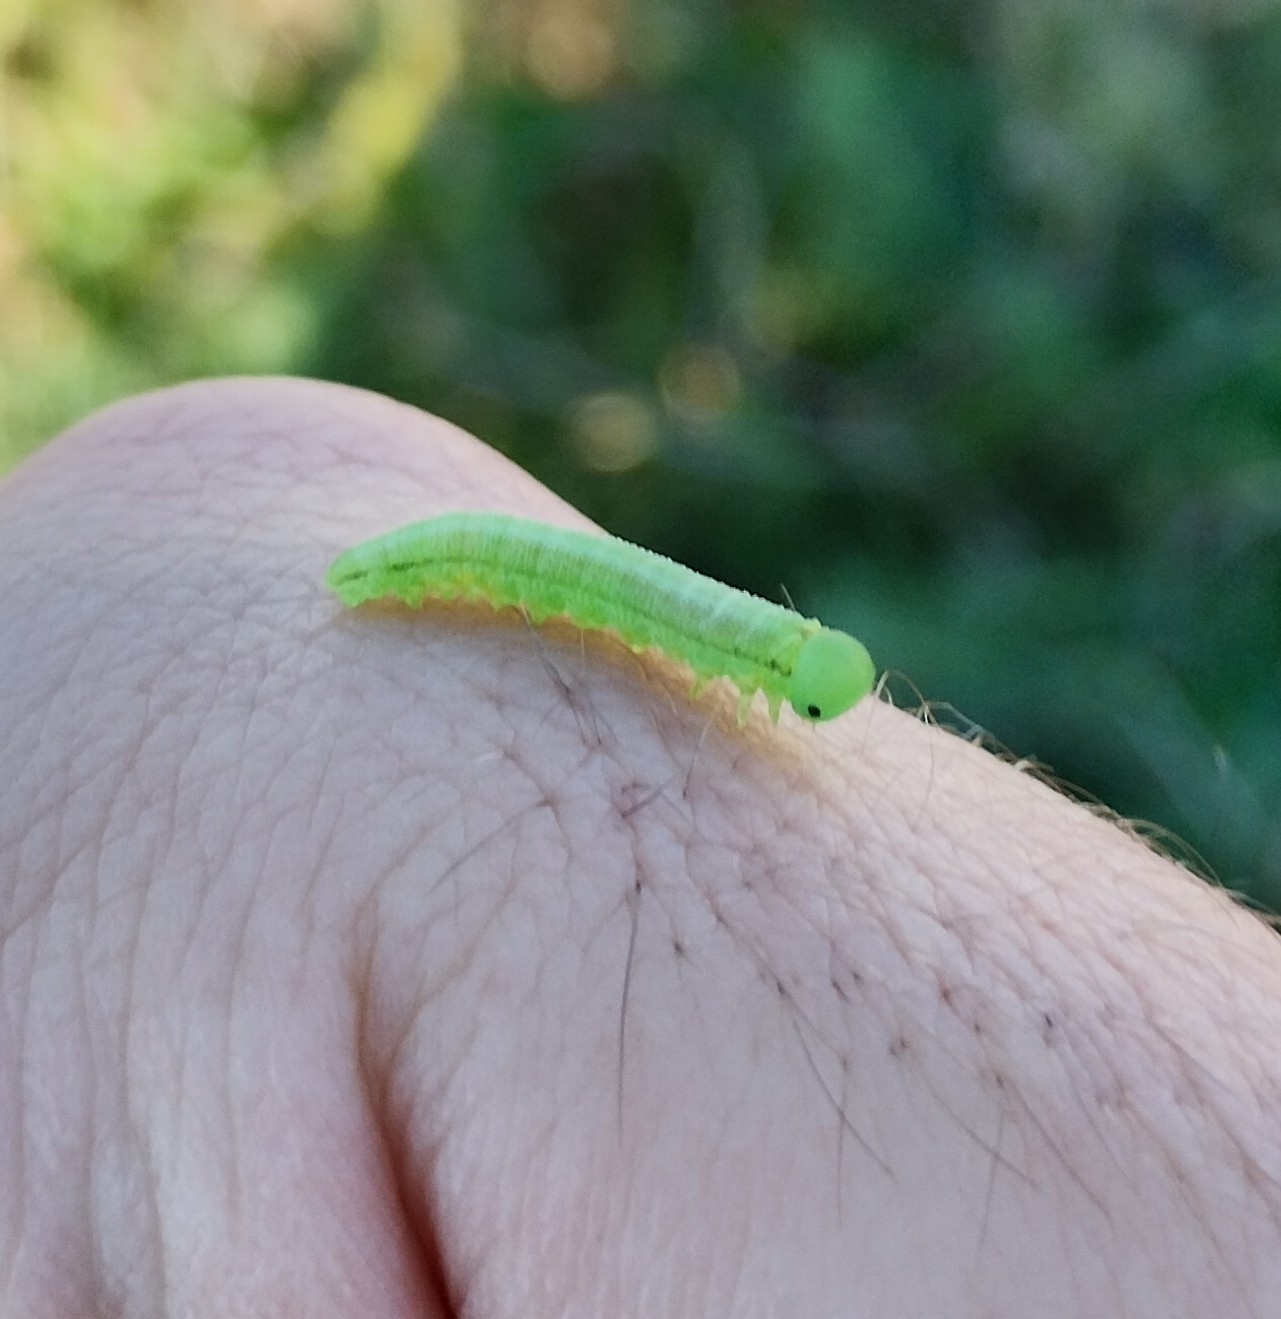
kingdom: Animalia
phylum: Arthropoda
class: Insecta
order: Hymenoptera
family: Tenthredinidae
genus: Tenthredopsis
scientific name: Tenthredopsis friesei
